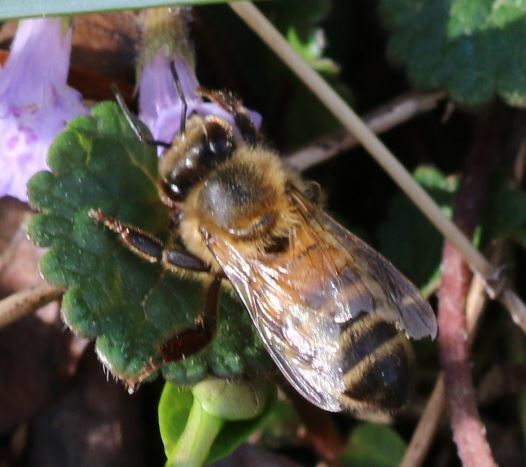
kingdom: Animalia
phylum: Arthropoda
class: Insecta
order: Hymenoptera
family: Apidae
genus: Apis
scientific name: Apis mellifera
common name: Honey bee
